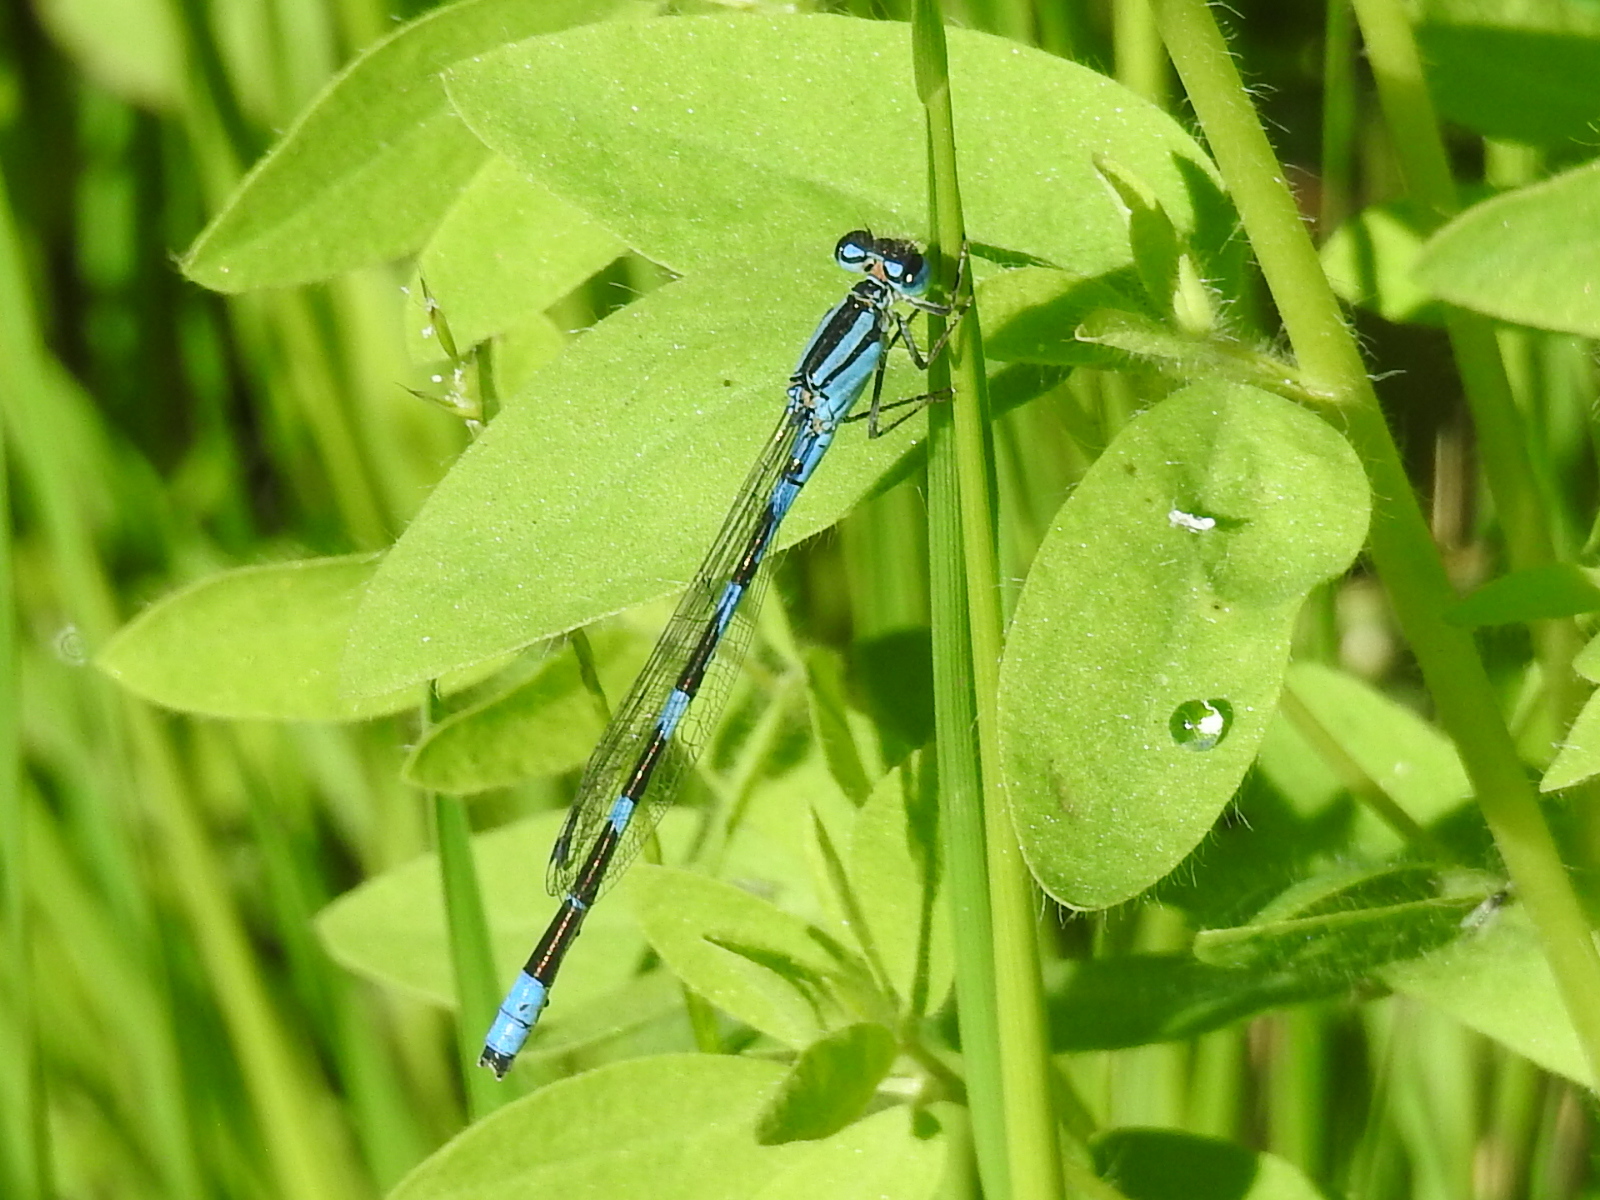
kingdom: Animalia
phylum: Arthropoda
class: Insecta
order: Odonata
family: Coenagrionidae
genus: Enallagma
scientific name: Enallagma carunculatum
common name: Tule bluet
